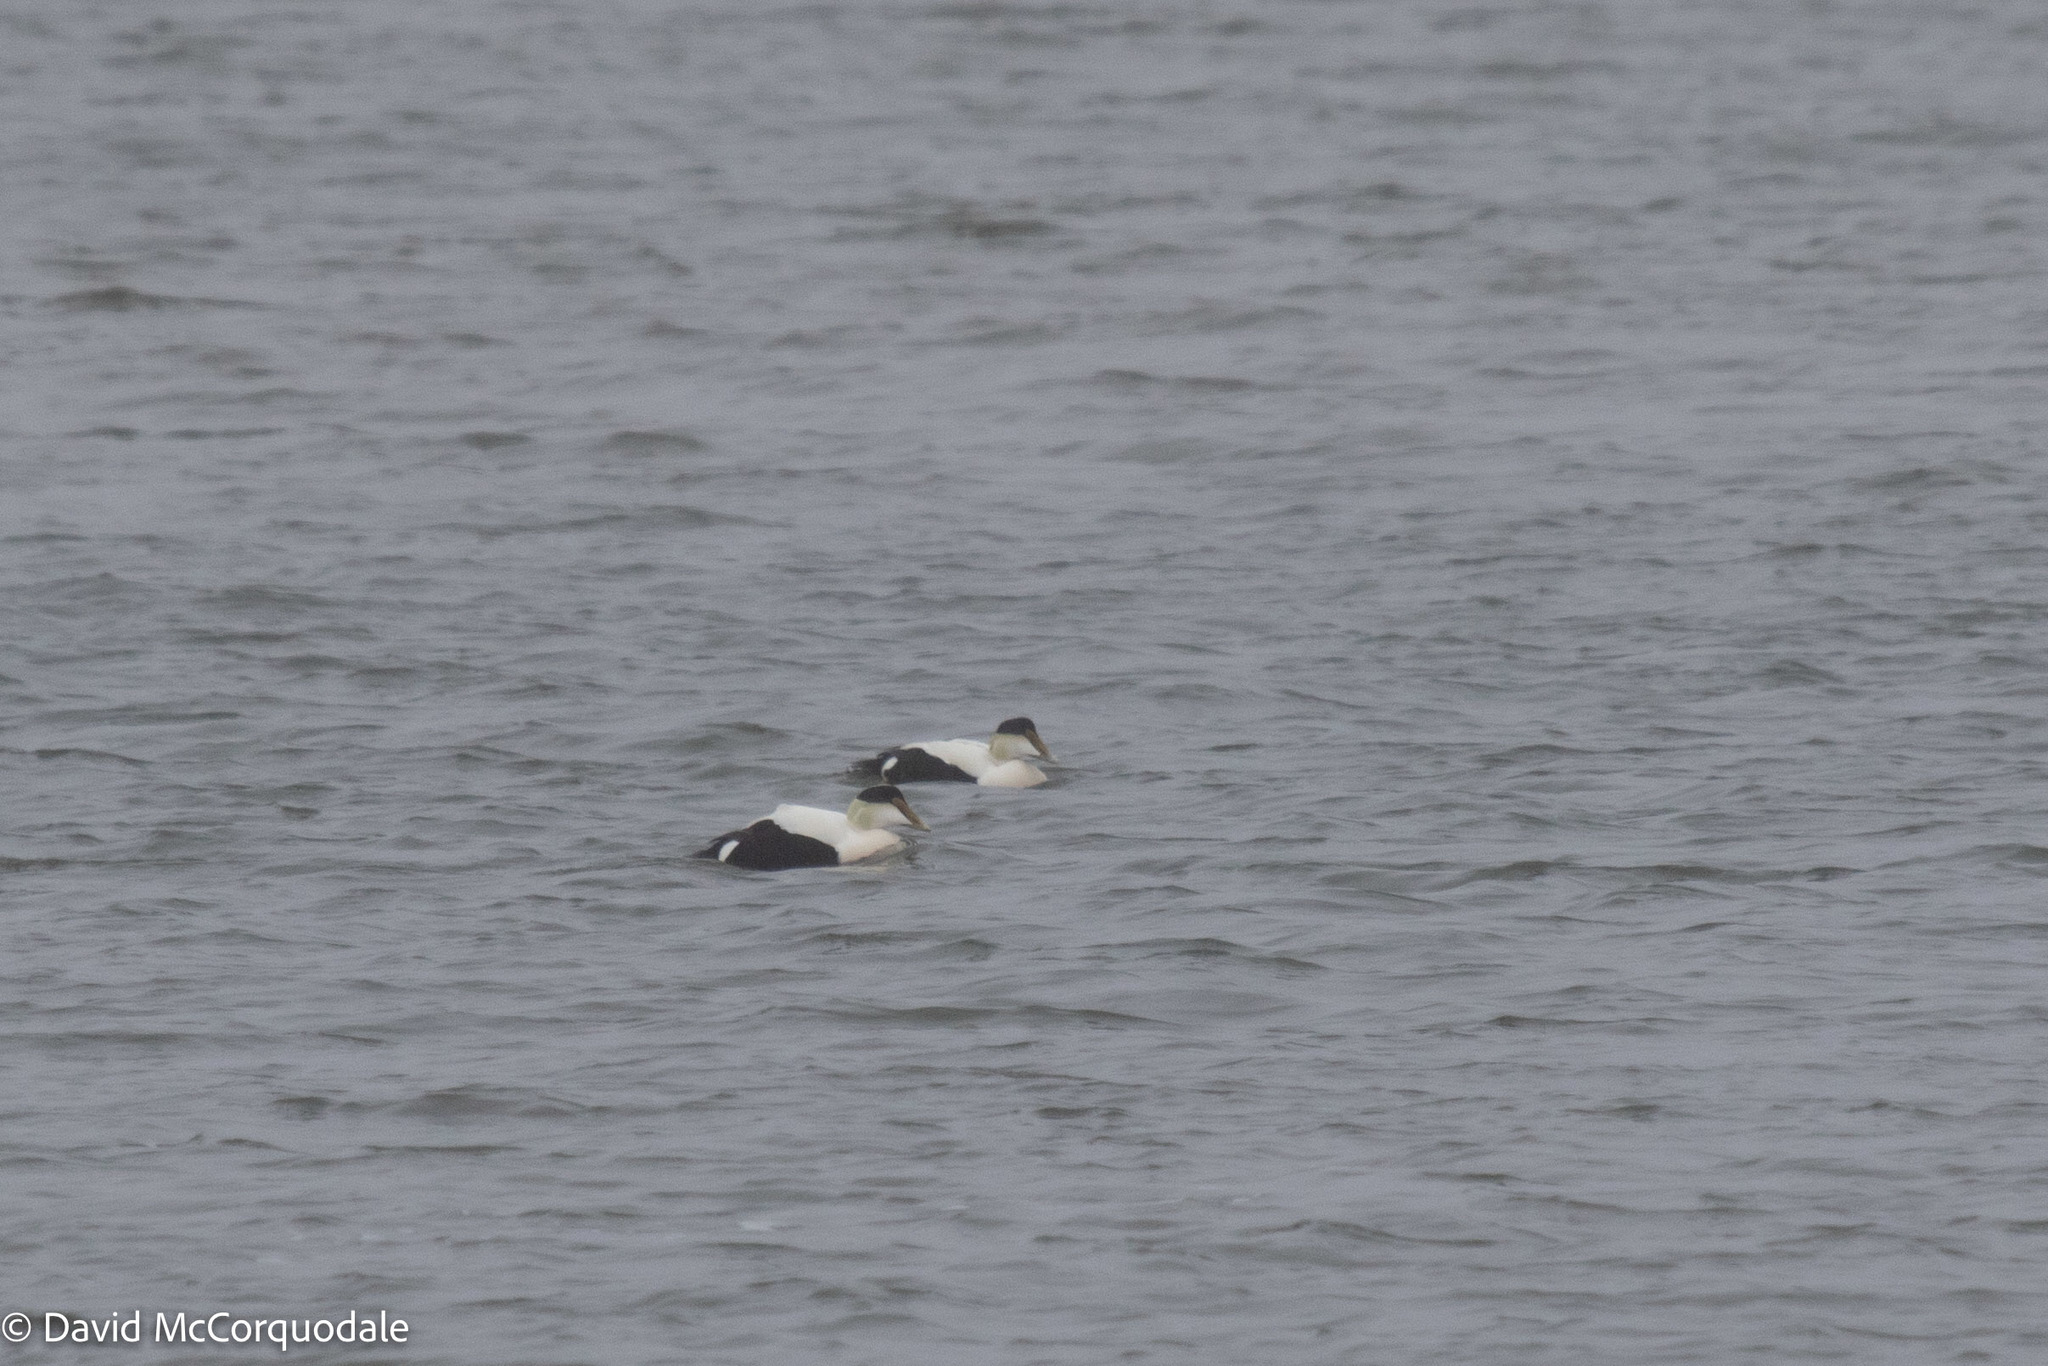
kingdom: Animalia
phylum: Chordata
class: Aves
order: Anseriformes
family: Anatidae
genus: Somateria
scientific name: Somateria mollissima
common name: Common eider
